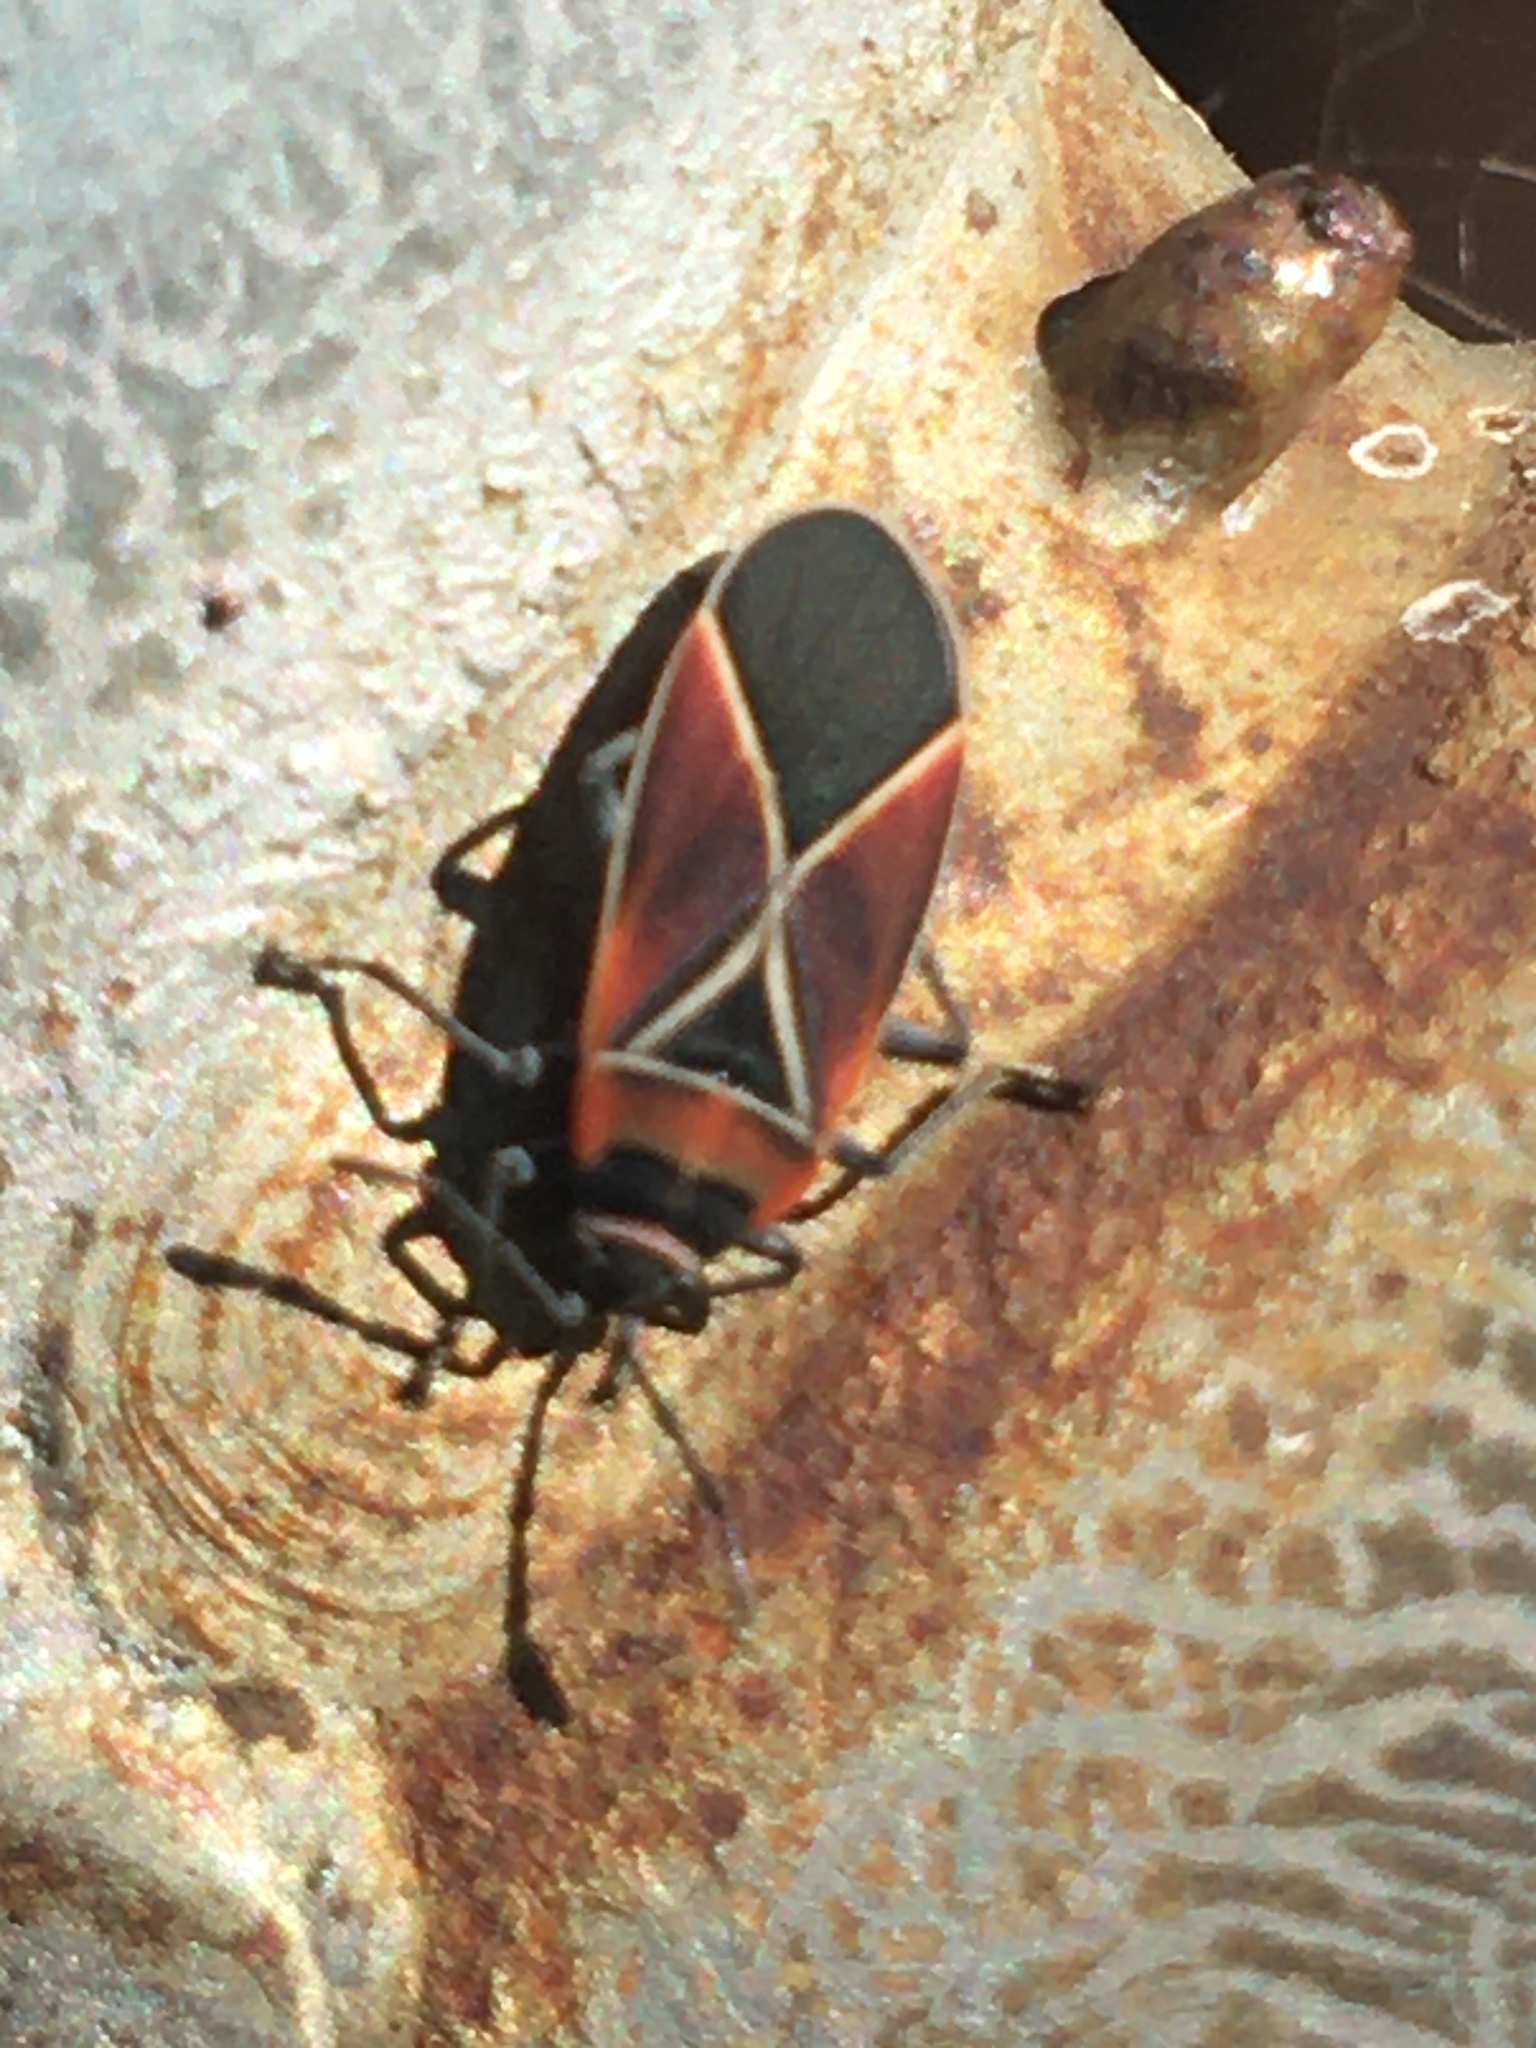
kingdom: Animalia
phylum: Arthropoda
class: Insecta
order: Hemiptera
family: Lygaeidae
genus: Neacoryphus
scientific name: Neacoryphus bicrucis
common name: Lygaeid bug
